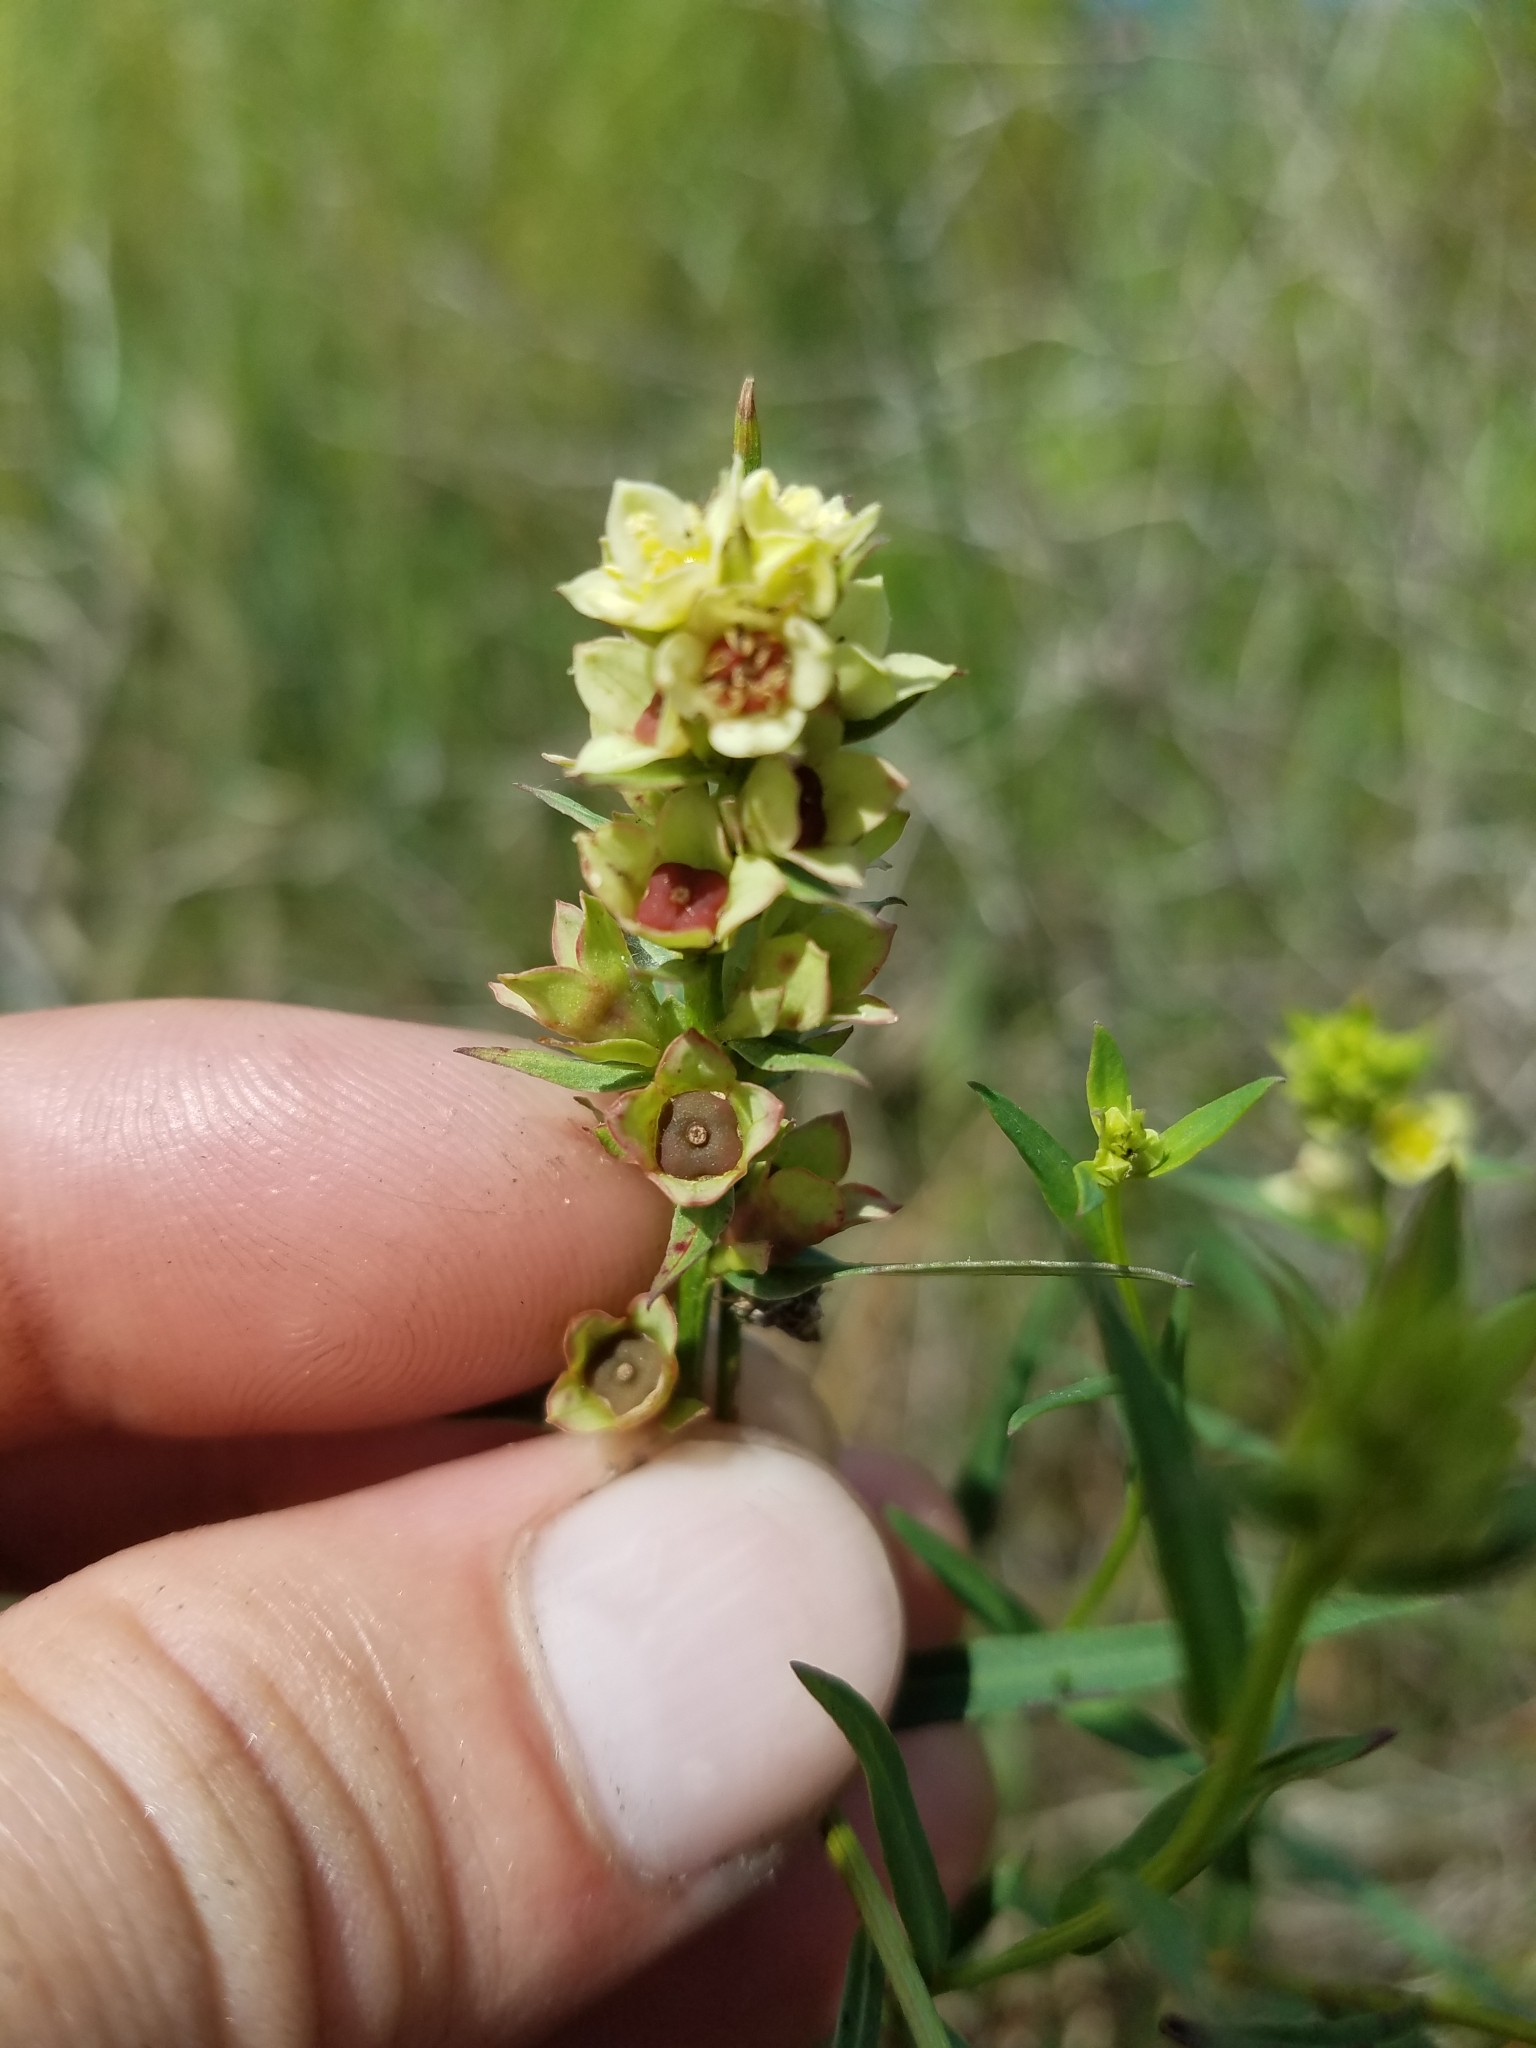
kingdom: Plantae
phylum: Tracheophyta
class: Magnoliopsida
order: Myrtales
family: Onagraceae
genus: Ludwigia
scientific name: Ludwigia suffruticosa
